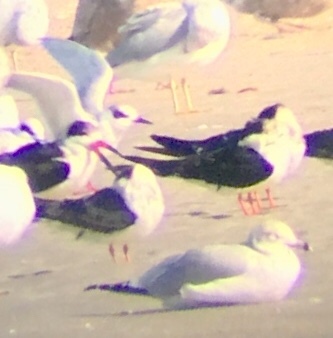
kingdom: Animalia
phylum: Chordata
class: Aves
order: Charadriiformes
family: Laridae
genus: Rynchops
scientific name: Rynchops niger
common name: Black skimmer
